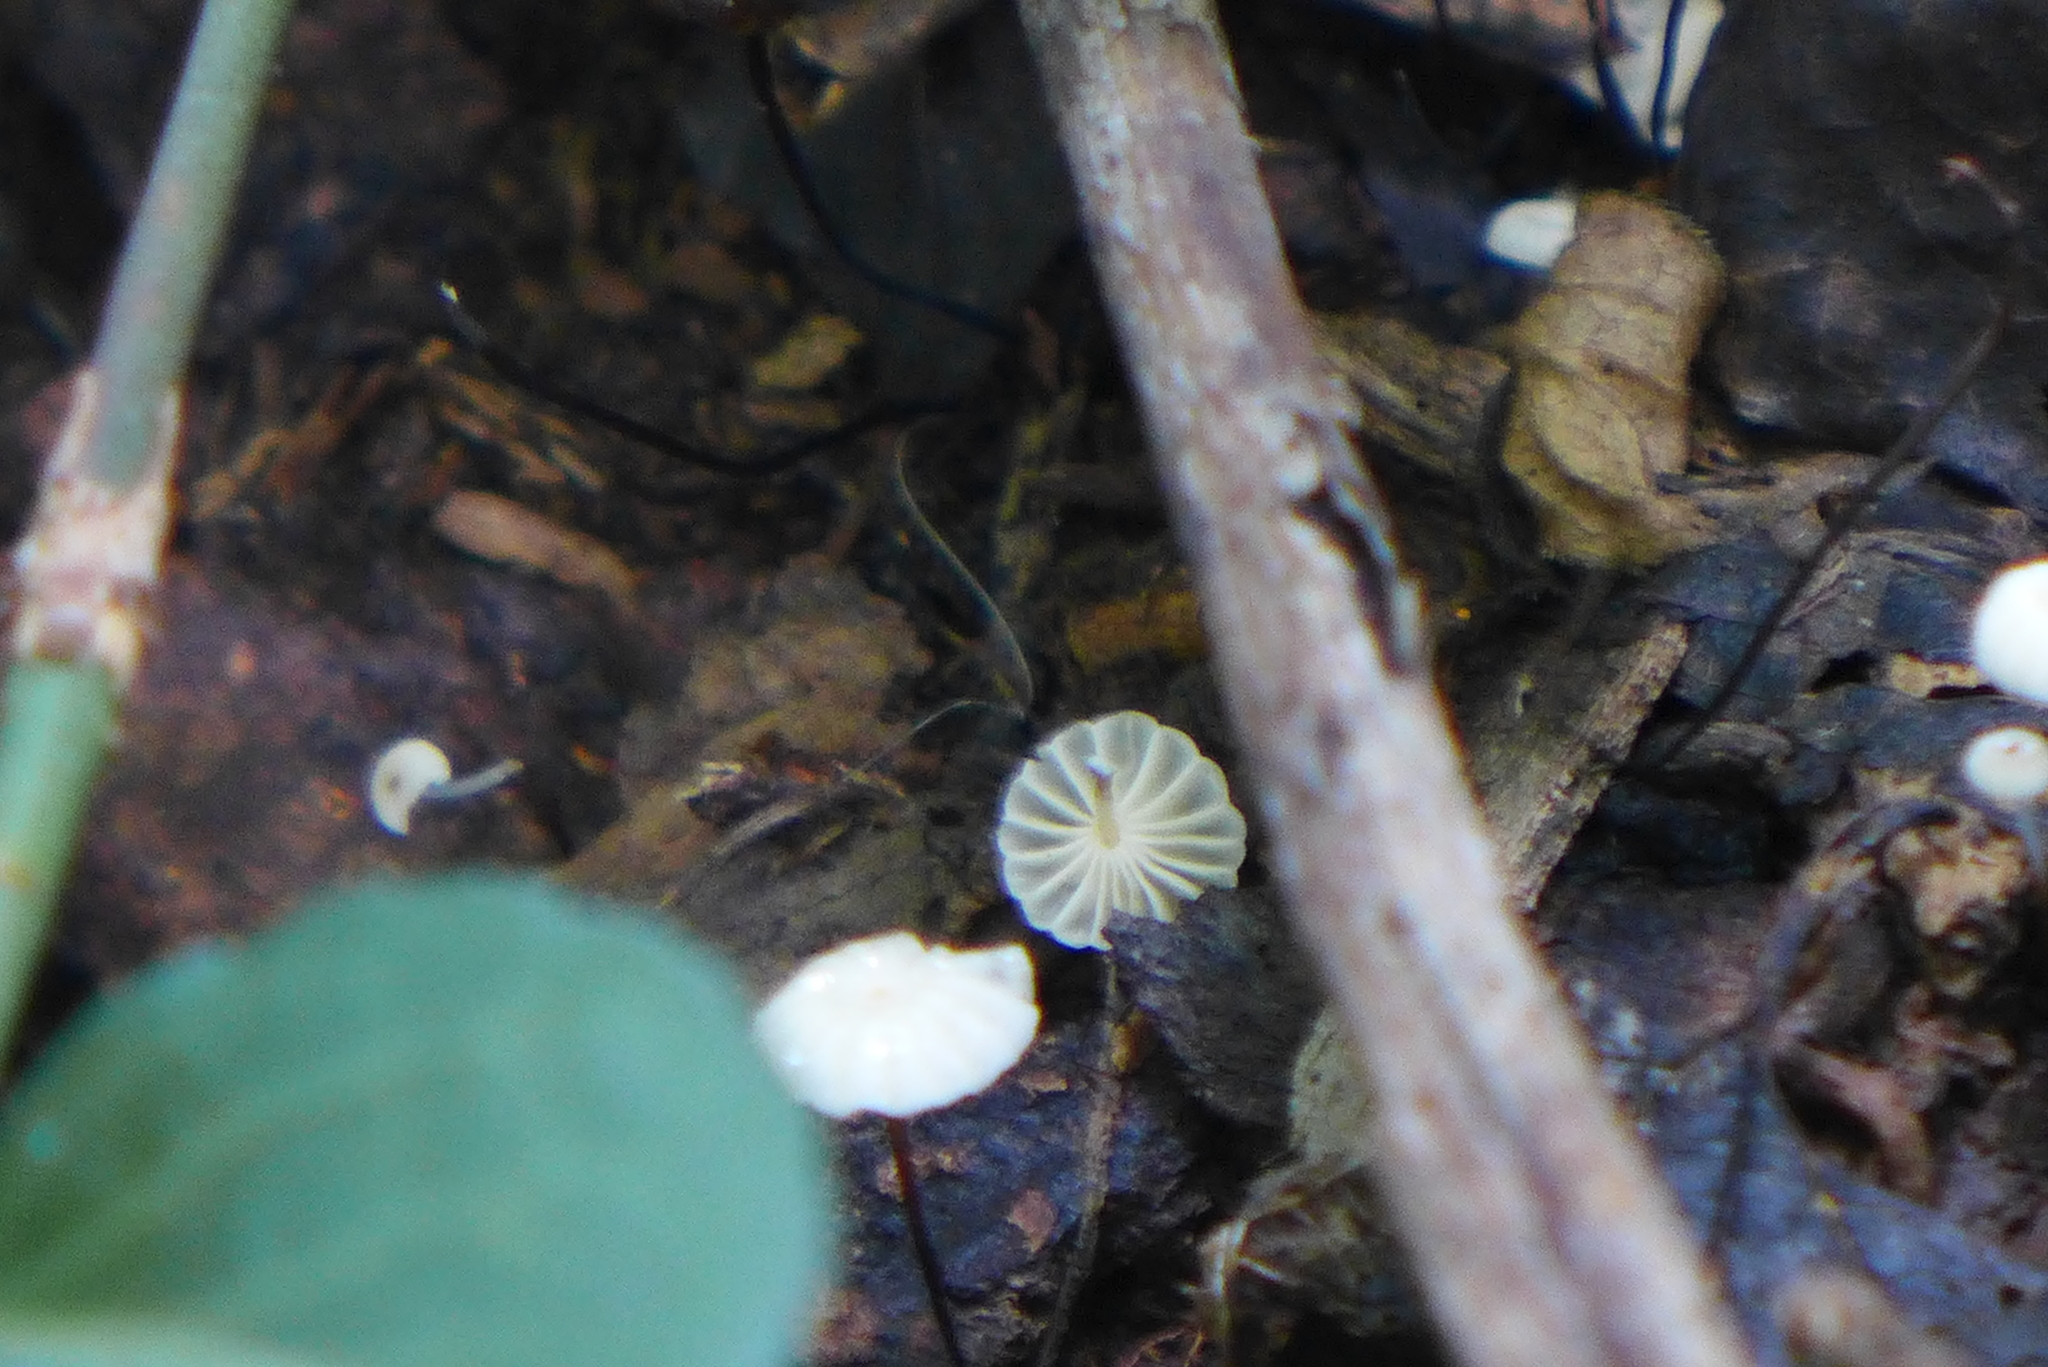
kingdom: Fungi
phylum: Basidiomycota
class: Agaricomycetes
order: Agaricales
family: Marasmiaceae
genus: Marasmius
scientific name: Marasmius rotula
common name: Collared parachute
